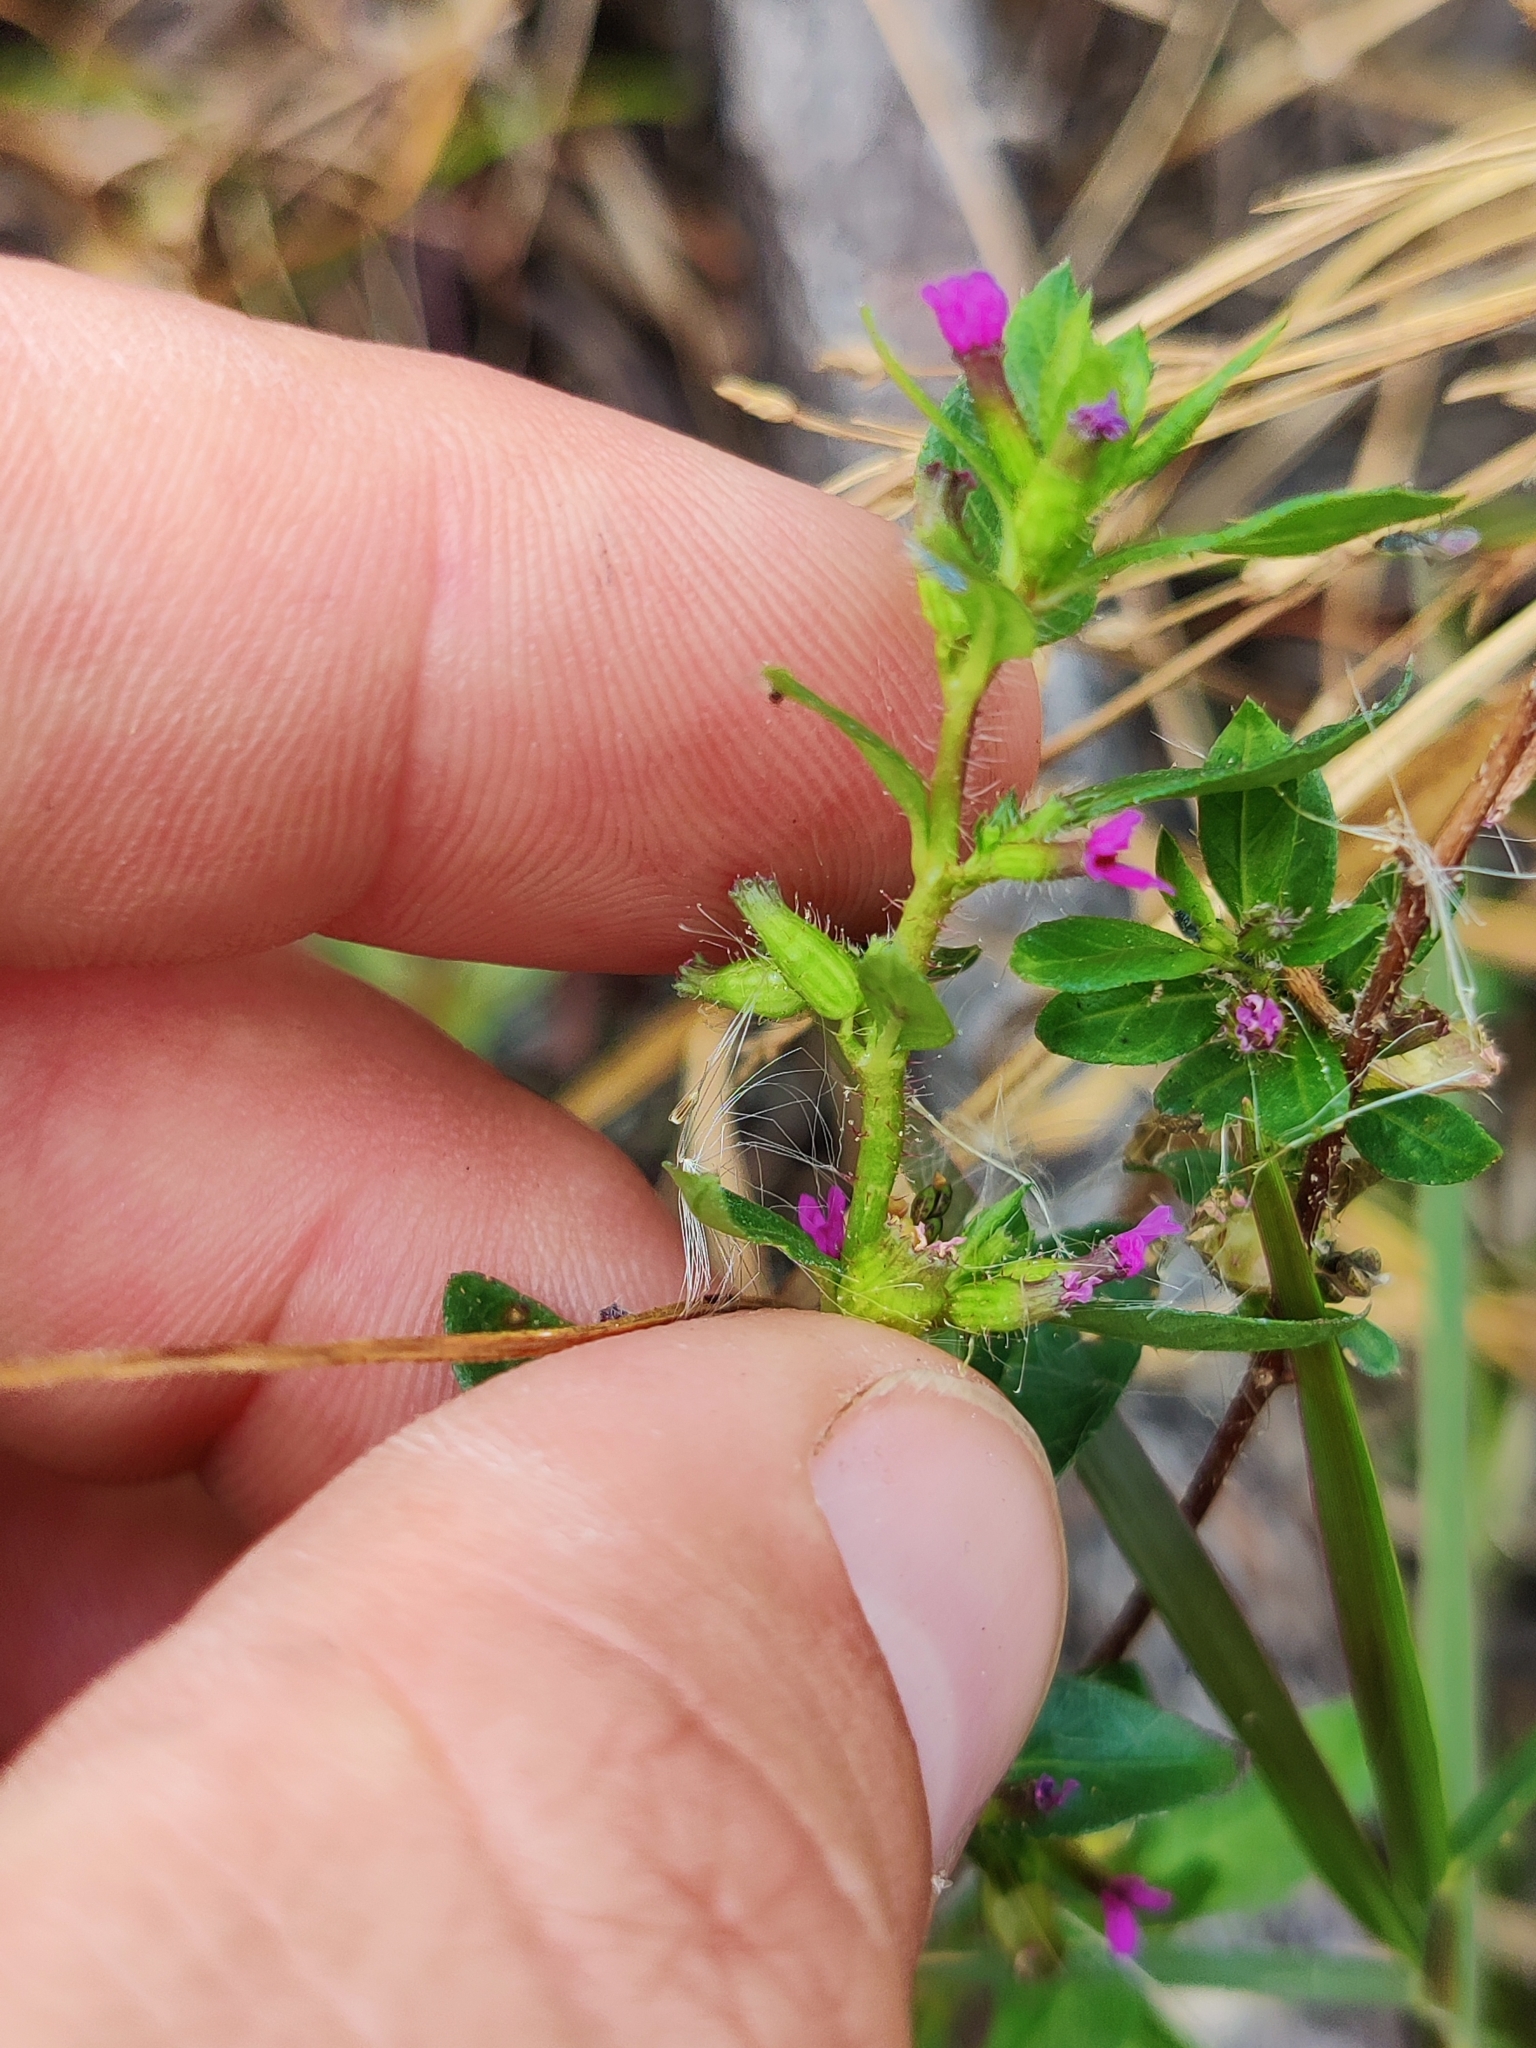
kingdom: Plantae
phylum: Tracheophyta
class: Magnoliopsida
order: Myrtales
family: Lythraceae
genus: Cuphea
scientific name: Cuphea carthagenensis
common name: Colombian waxweed
